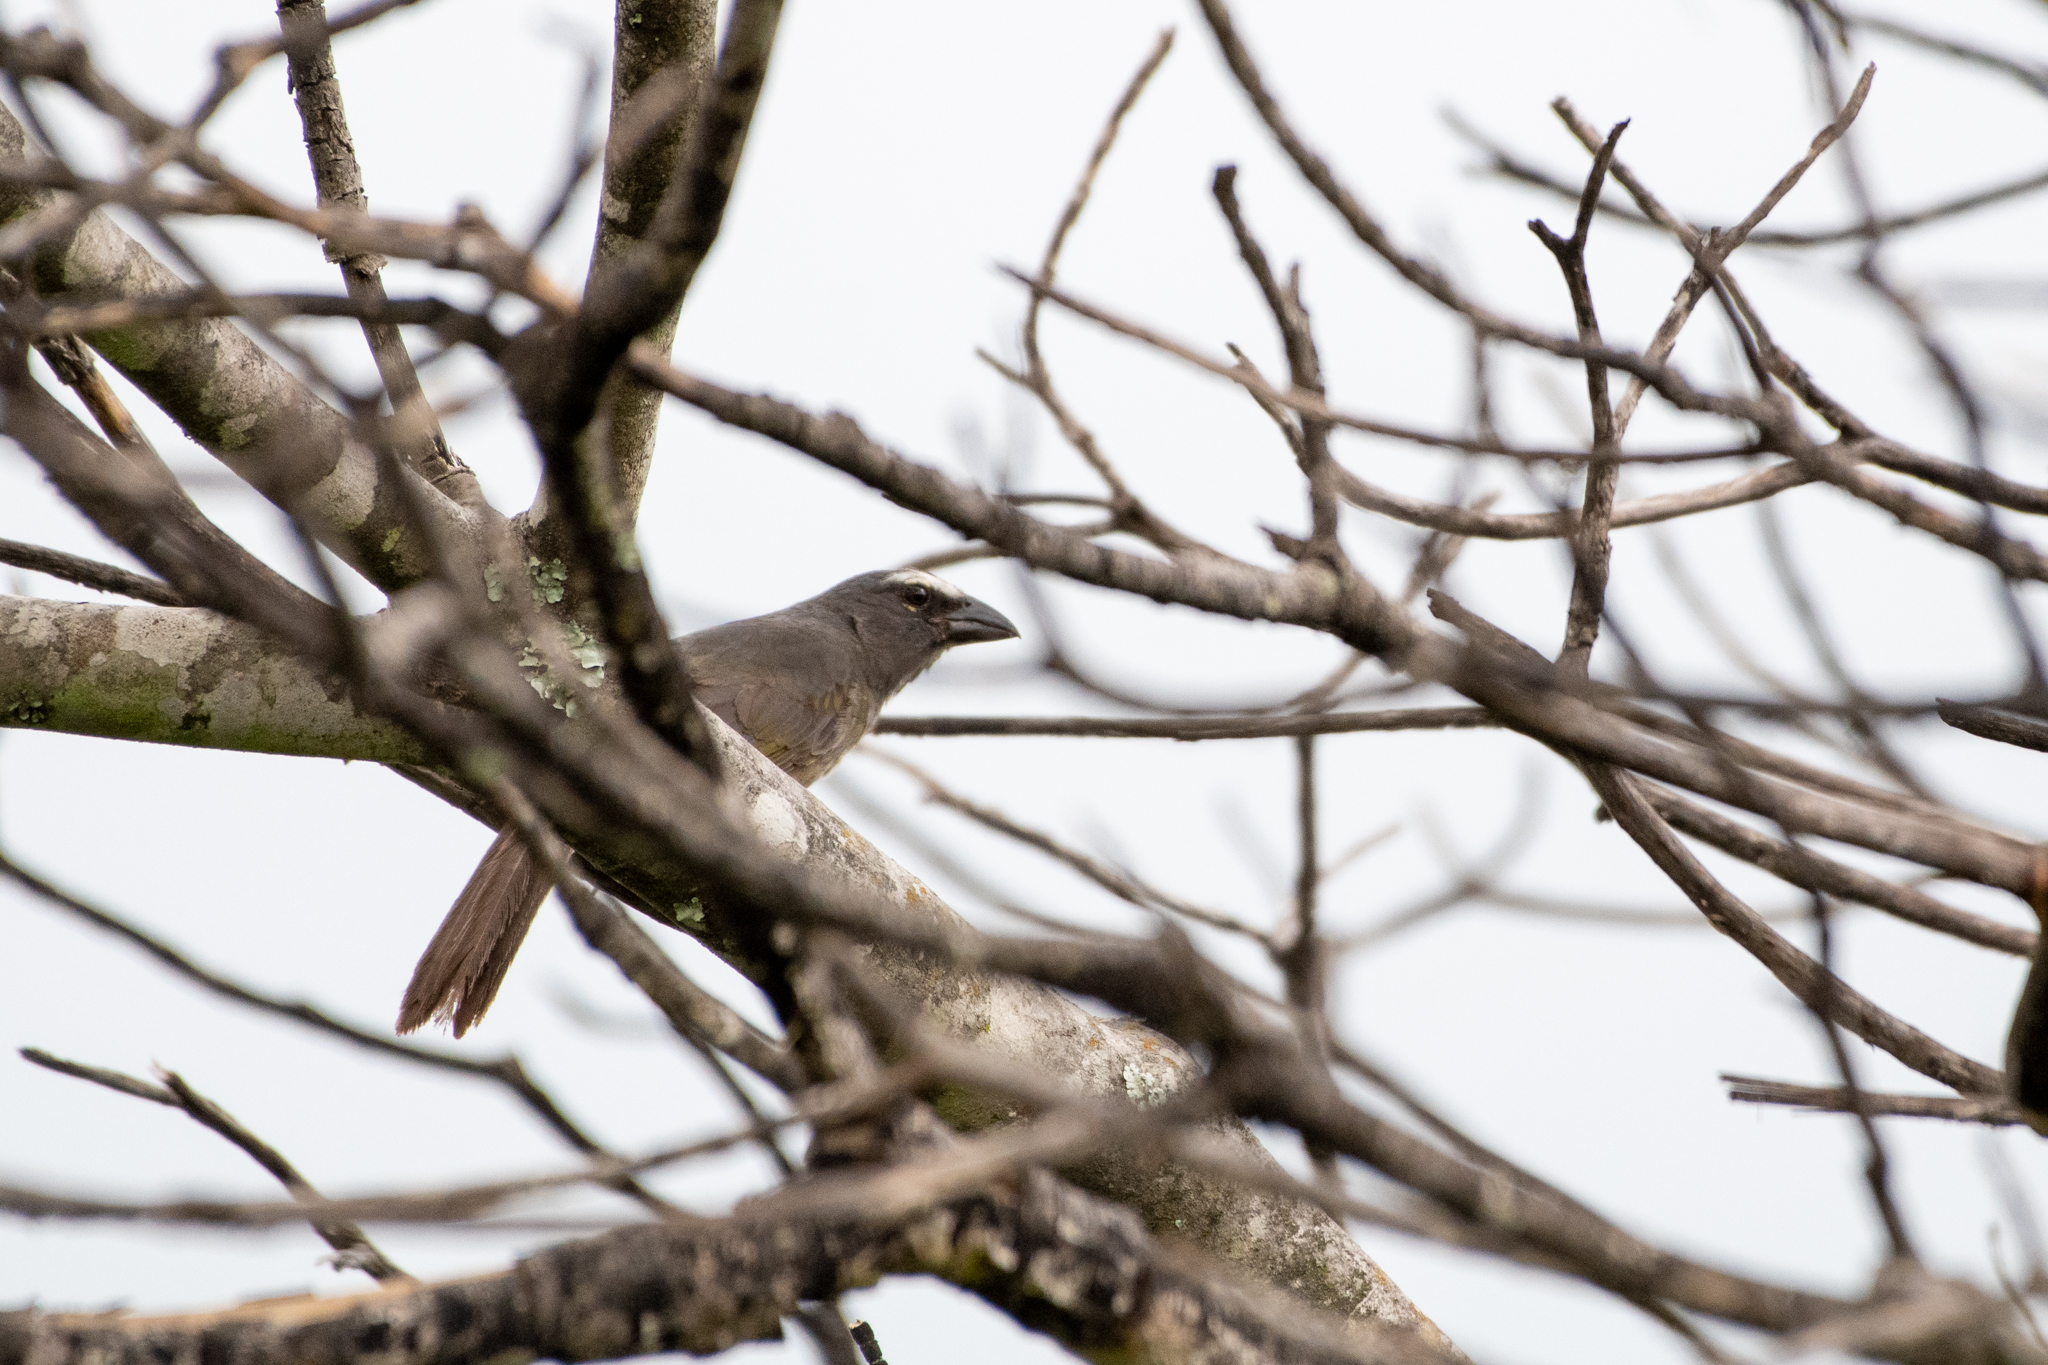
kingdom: Animalia
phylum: Chordata
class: Aves
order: Passeriformes
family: Thraupidae
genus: Saltator
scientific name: Saltator grandis
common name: Cinnamon-bellied saltator
